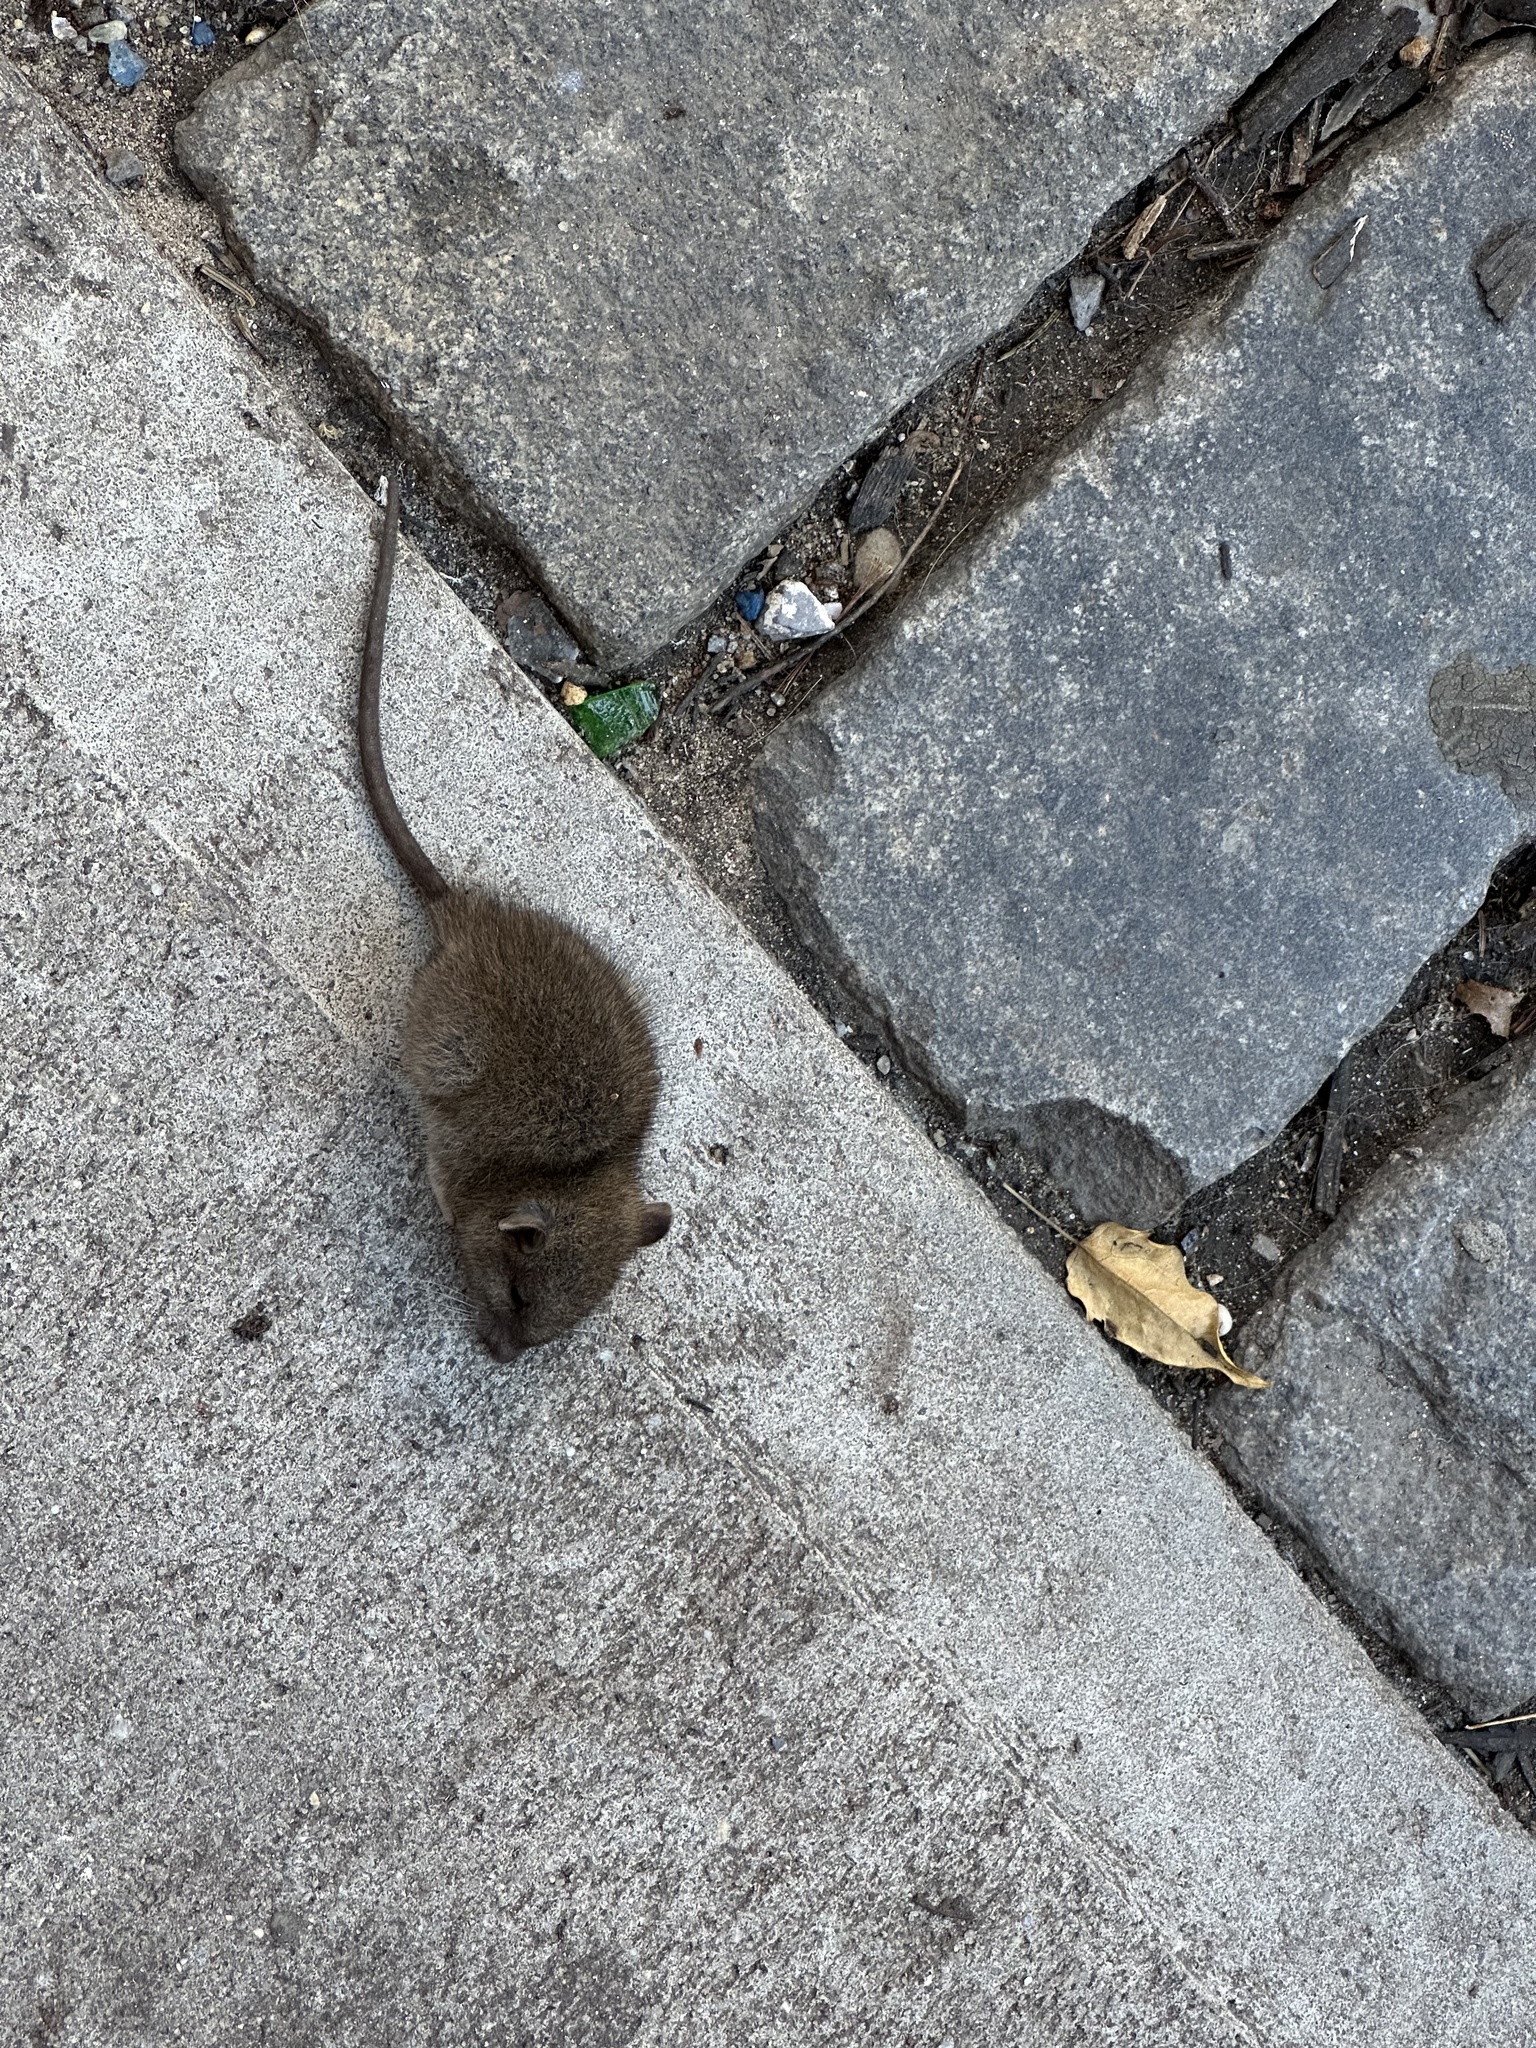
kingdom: Animalia
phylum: Chordata
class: Mammalia
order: Rodentia
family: Muridae
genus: Rattus
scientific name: Rattus norvegicus
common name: Brown rat
